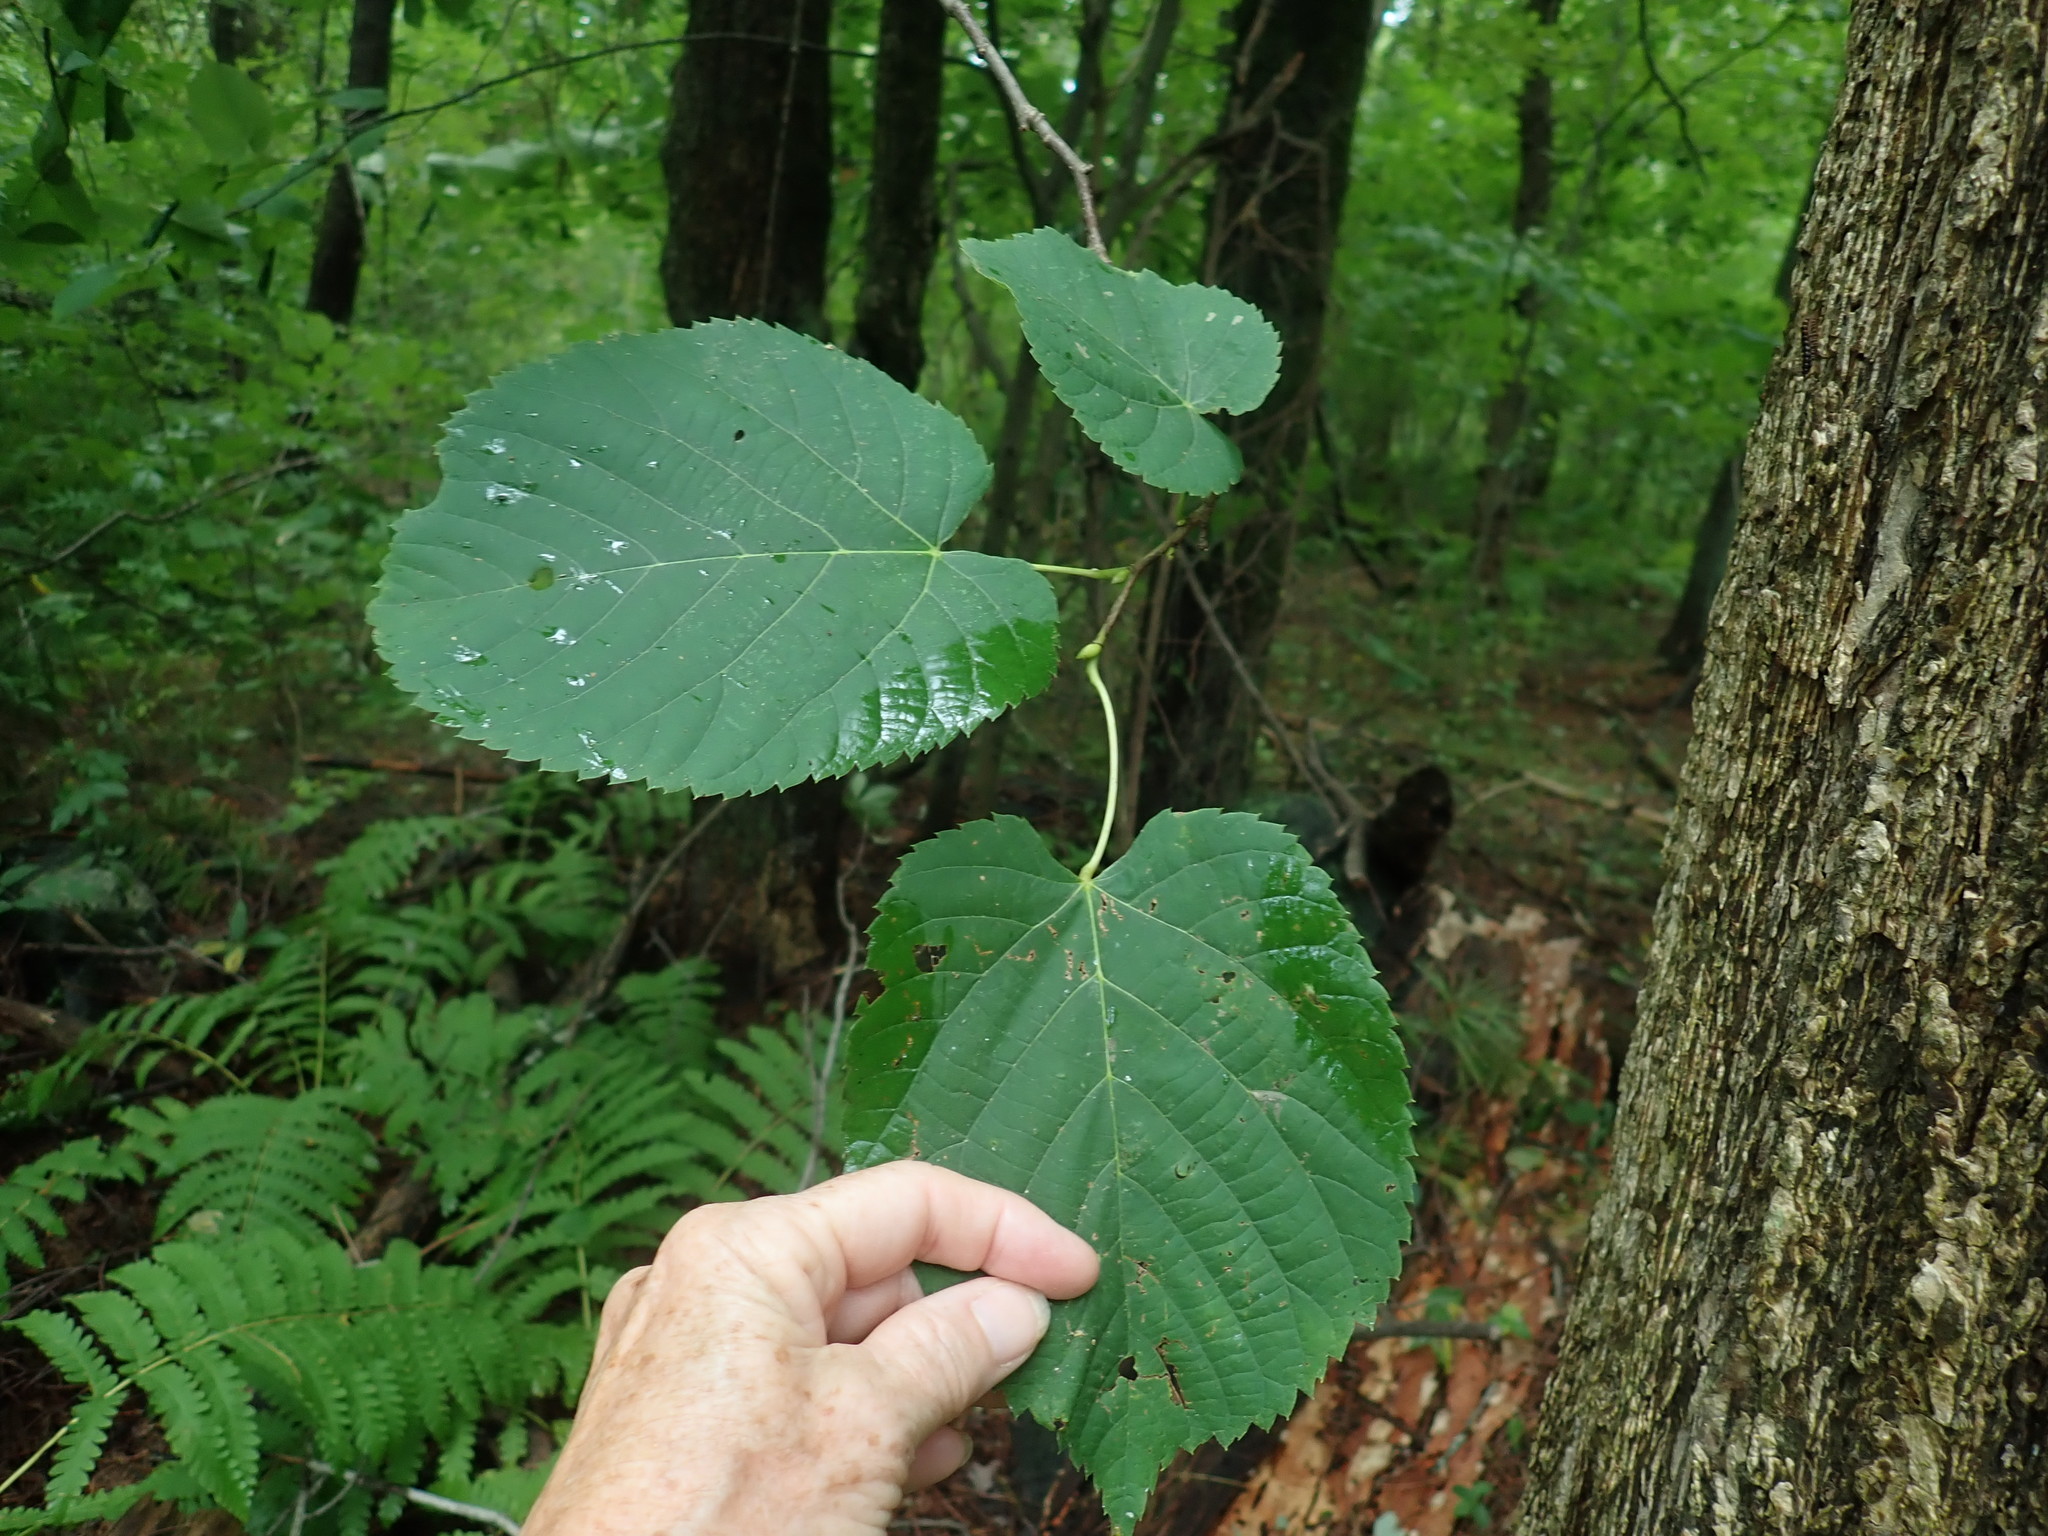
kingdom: Plantae
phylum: Tracheophyta
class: Magnoliopsida
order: Malvales
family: Malvaceae
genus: Tilia
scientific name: Tilia americana
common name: Basswood
